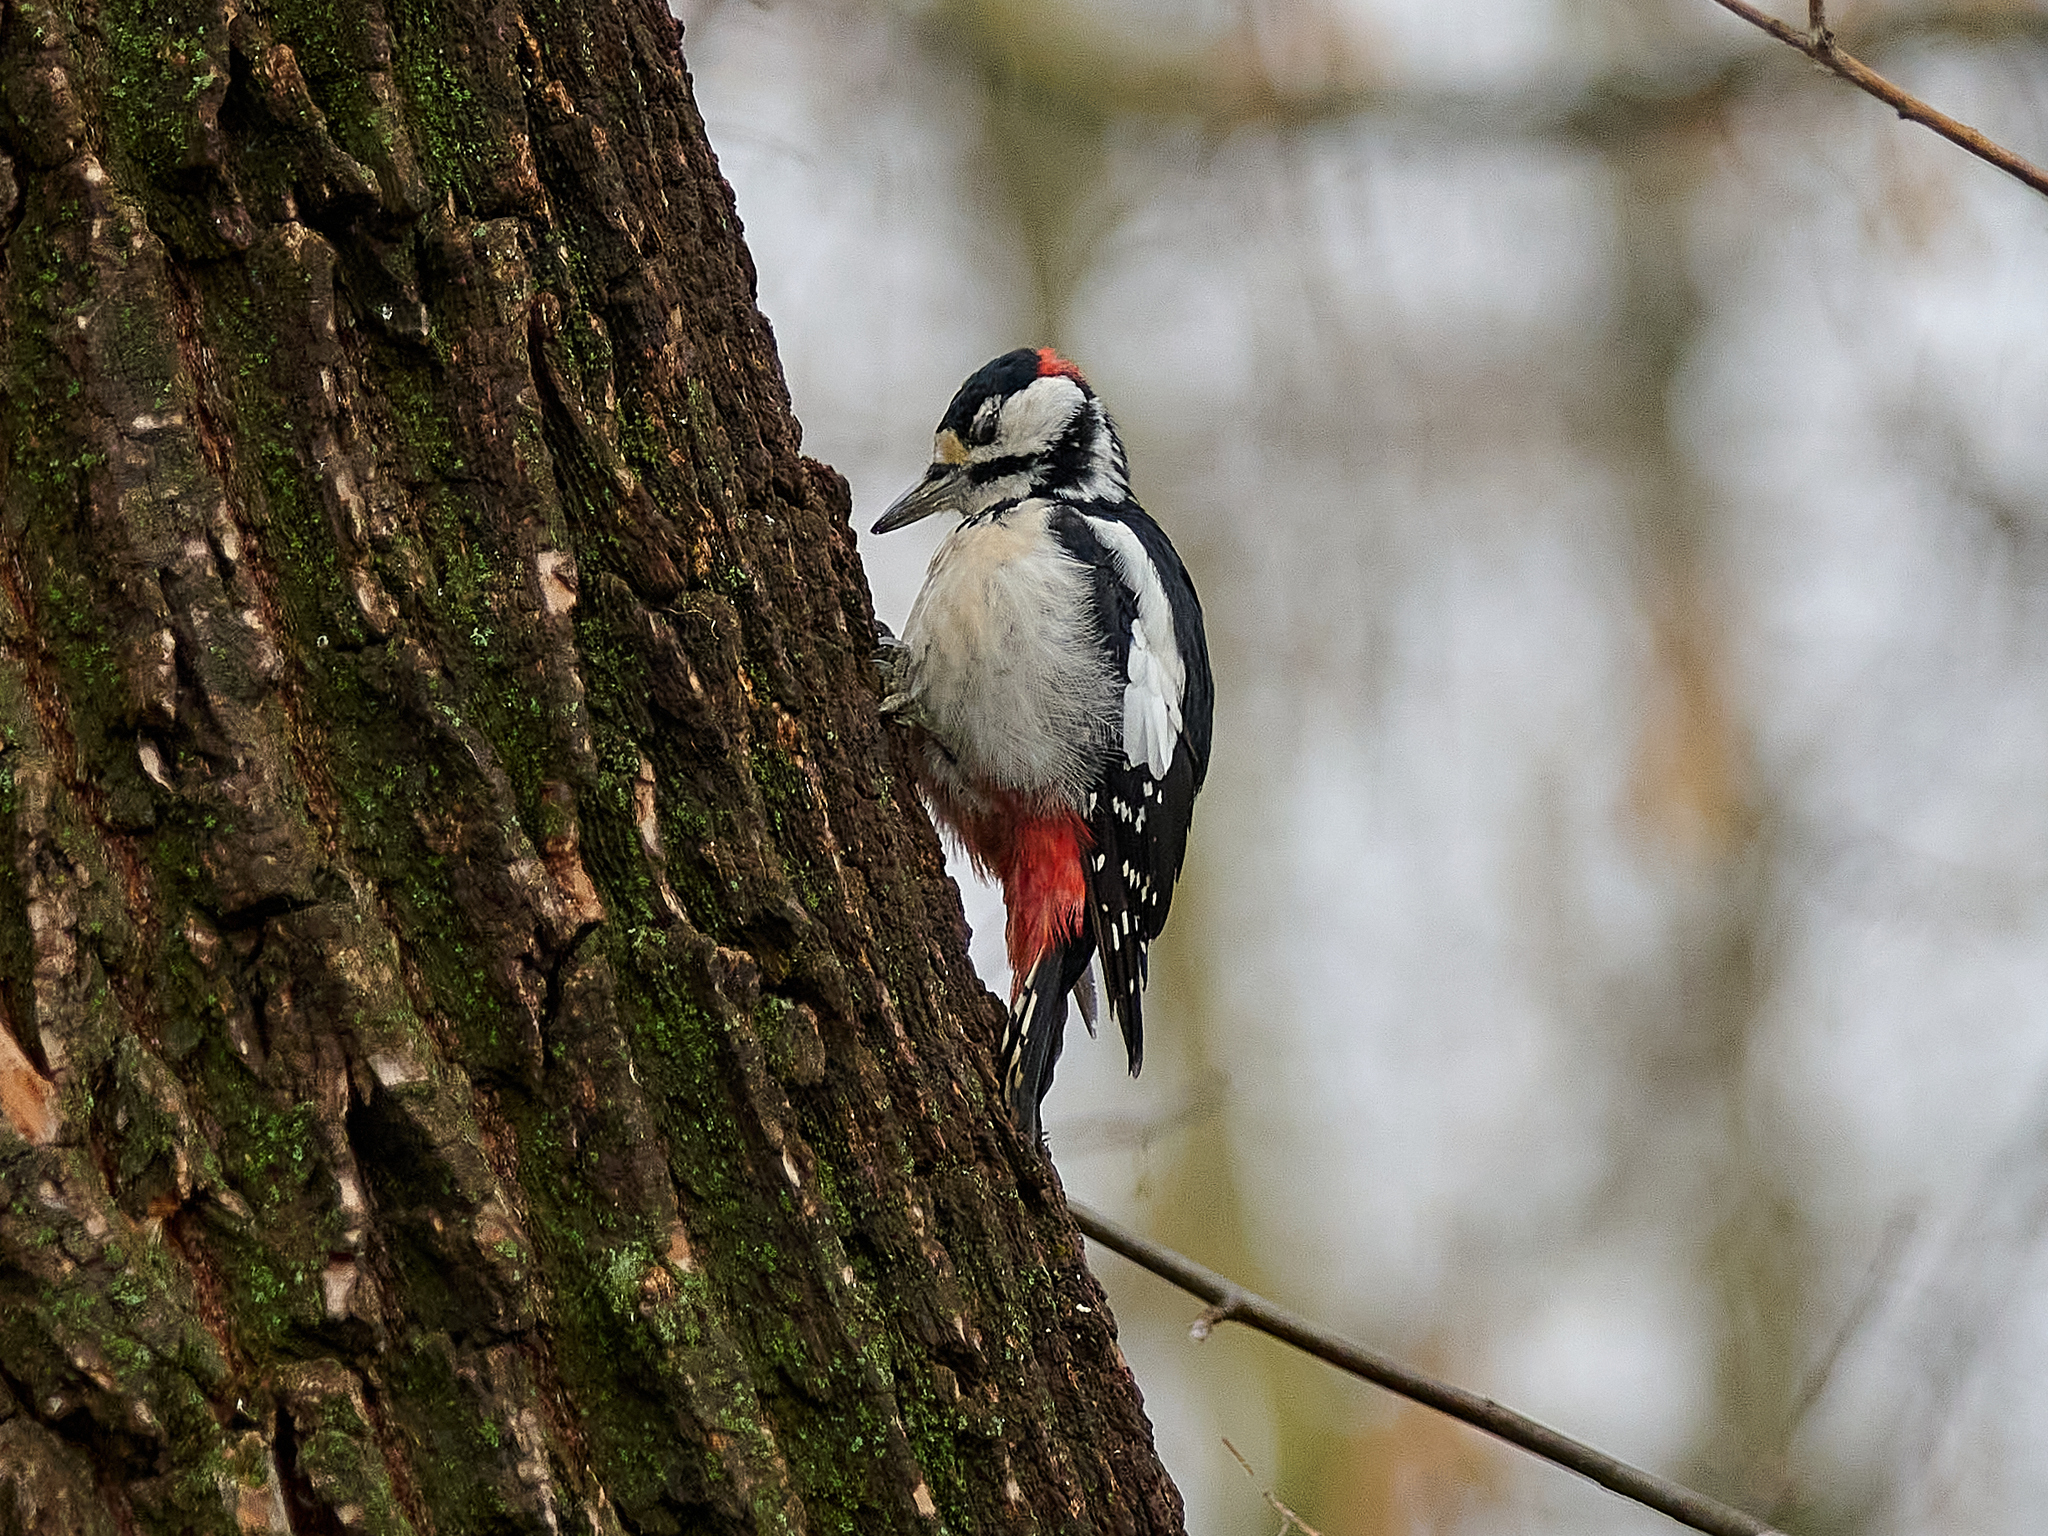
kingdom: Animalia
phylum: Chordata
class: Aves
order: Piciformes
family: Picidae
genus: Dendrocopos
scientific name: Dendrocopos major
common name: Great spotted woodpecker
